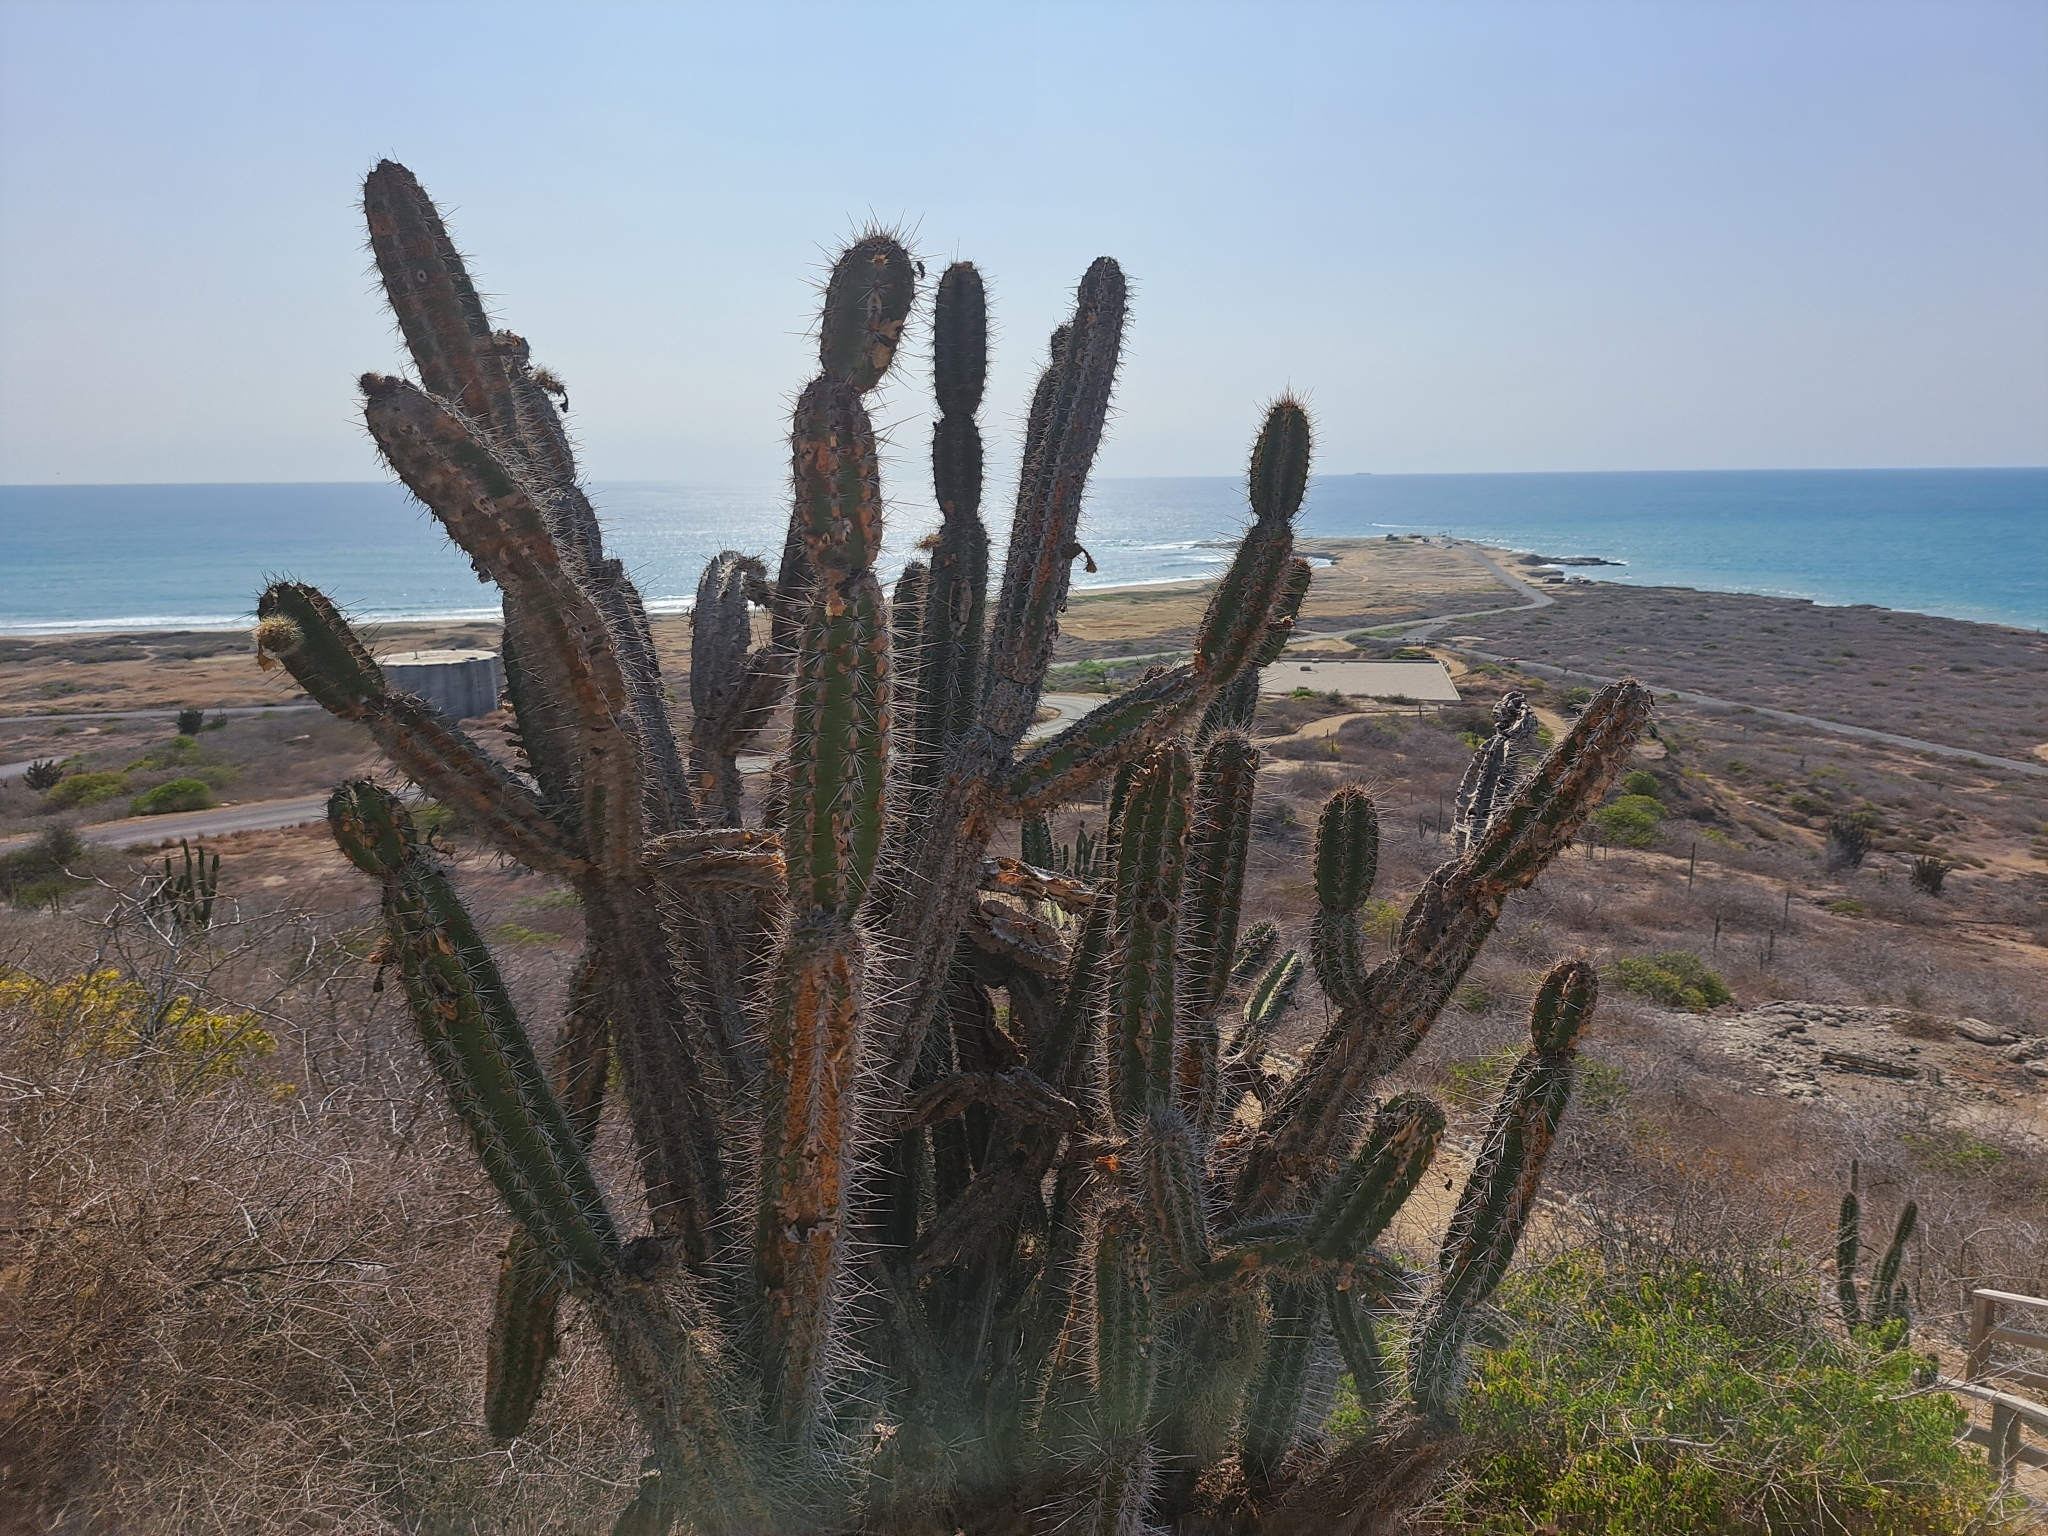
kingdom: Plantae
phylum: Tracheophyta
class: Magnoliopsida
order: Caryophyllales
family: Cactaceae
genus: Armatocereus
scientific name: Armatocereus cartwrightianus
